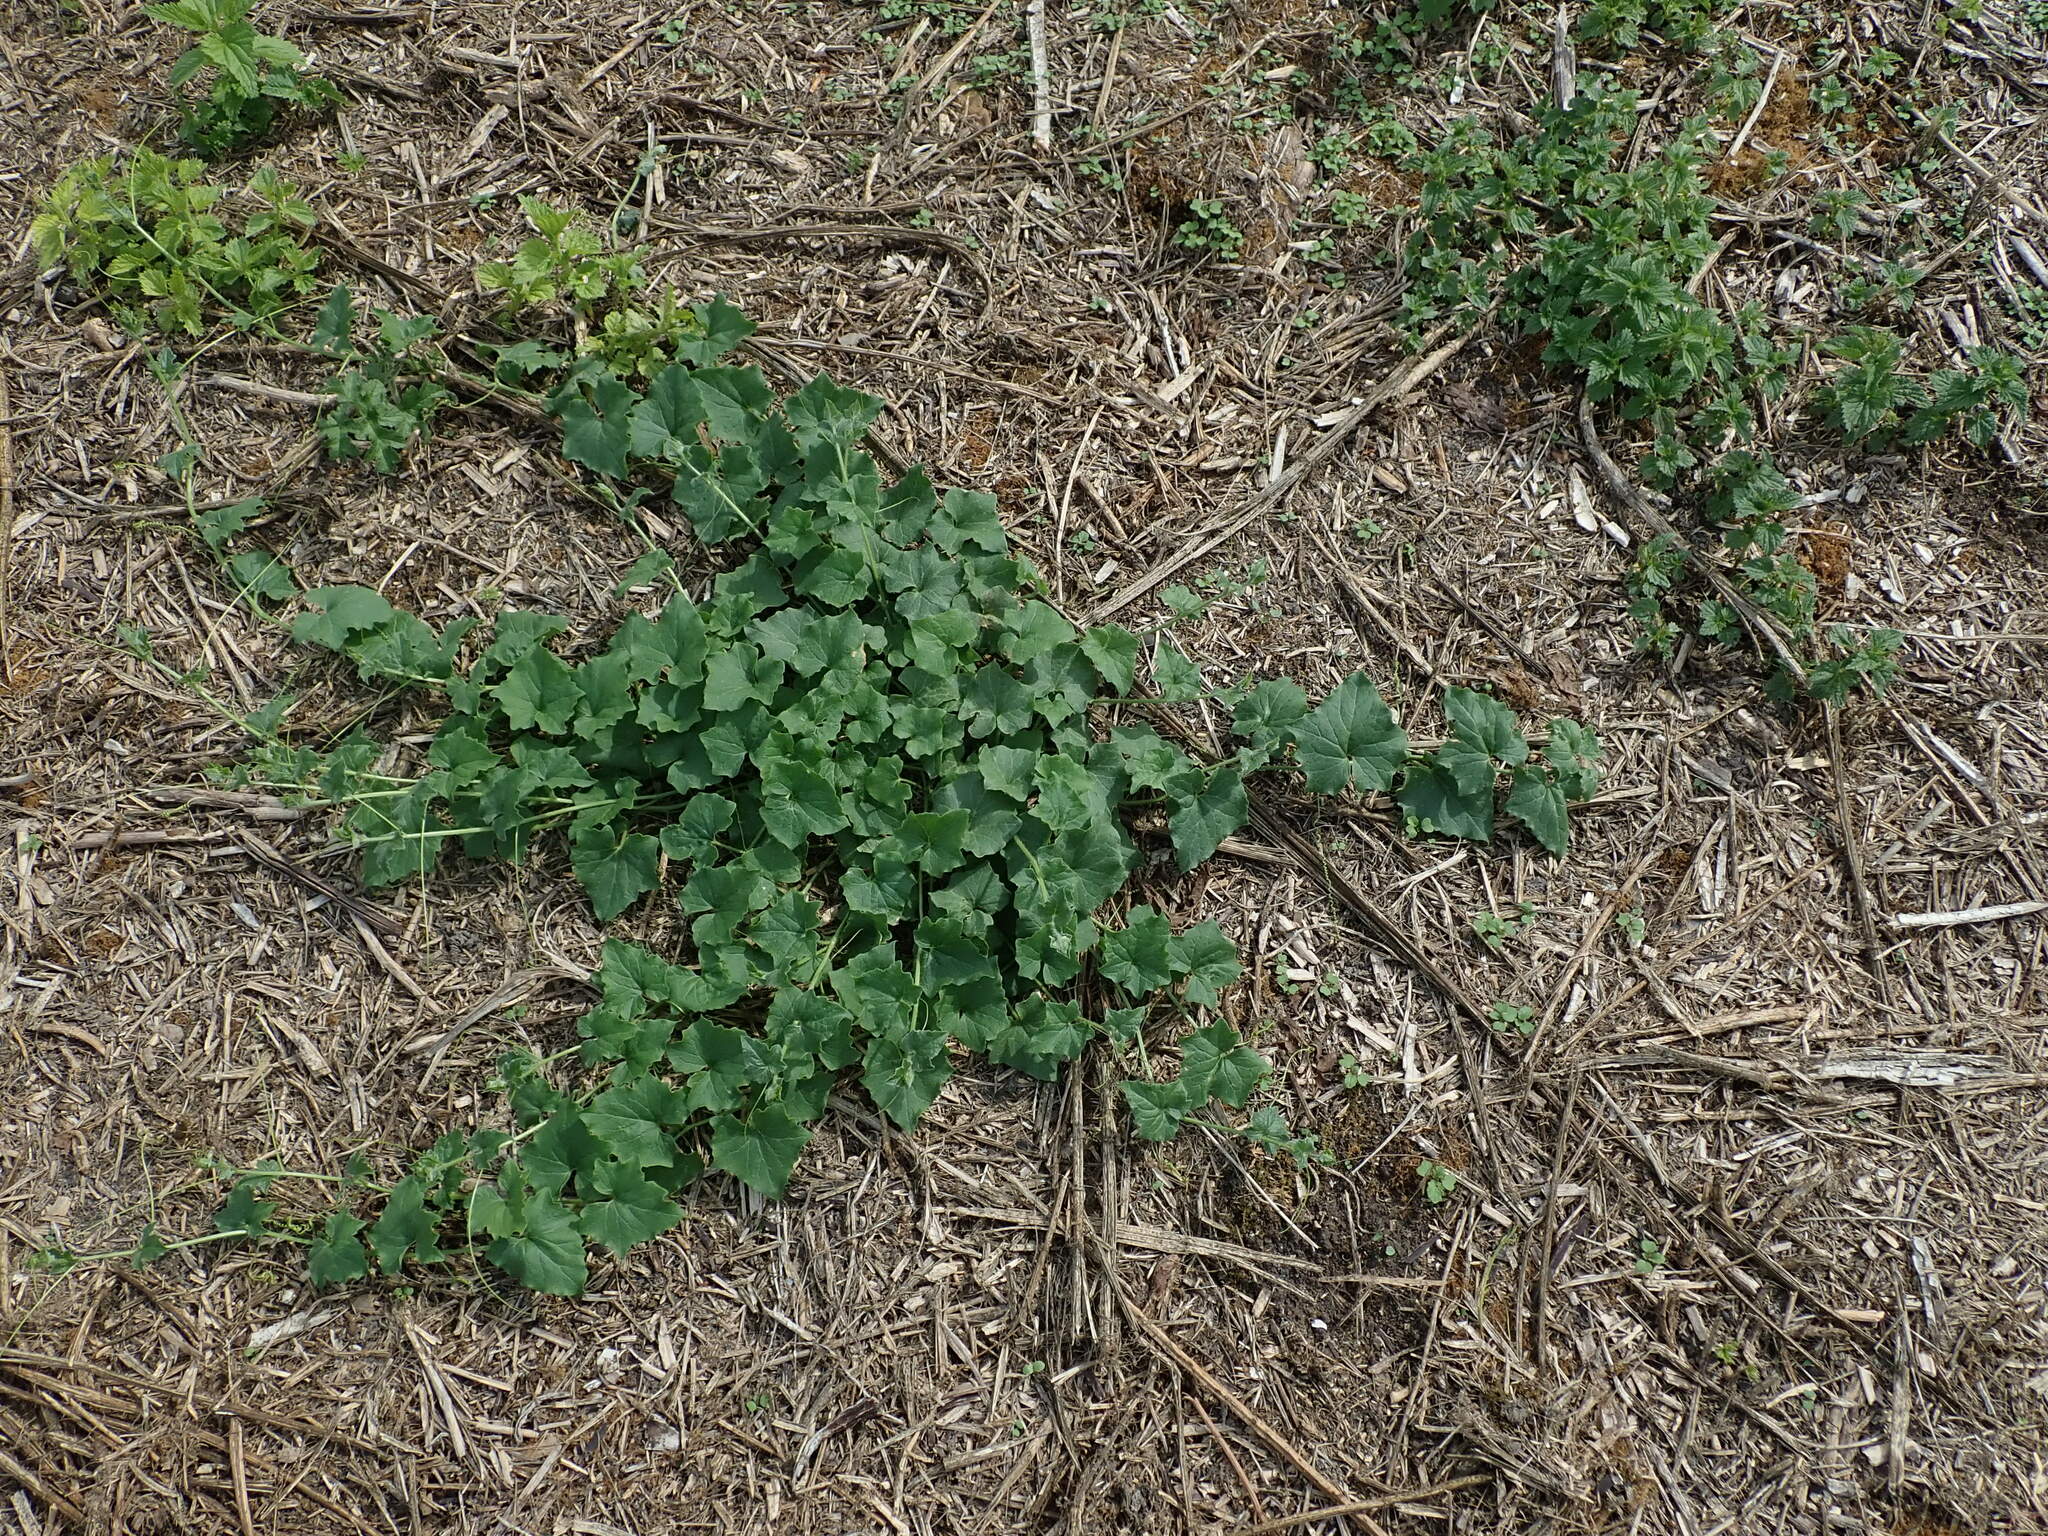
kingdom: Plantae
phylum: Tracheophyta
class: Magnoliopsida
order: Cucurbitales
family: Cucurbitaceae
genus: Bryonia
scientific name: Bryonia cretica
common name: Cretan bryony
